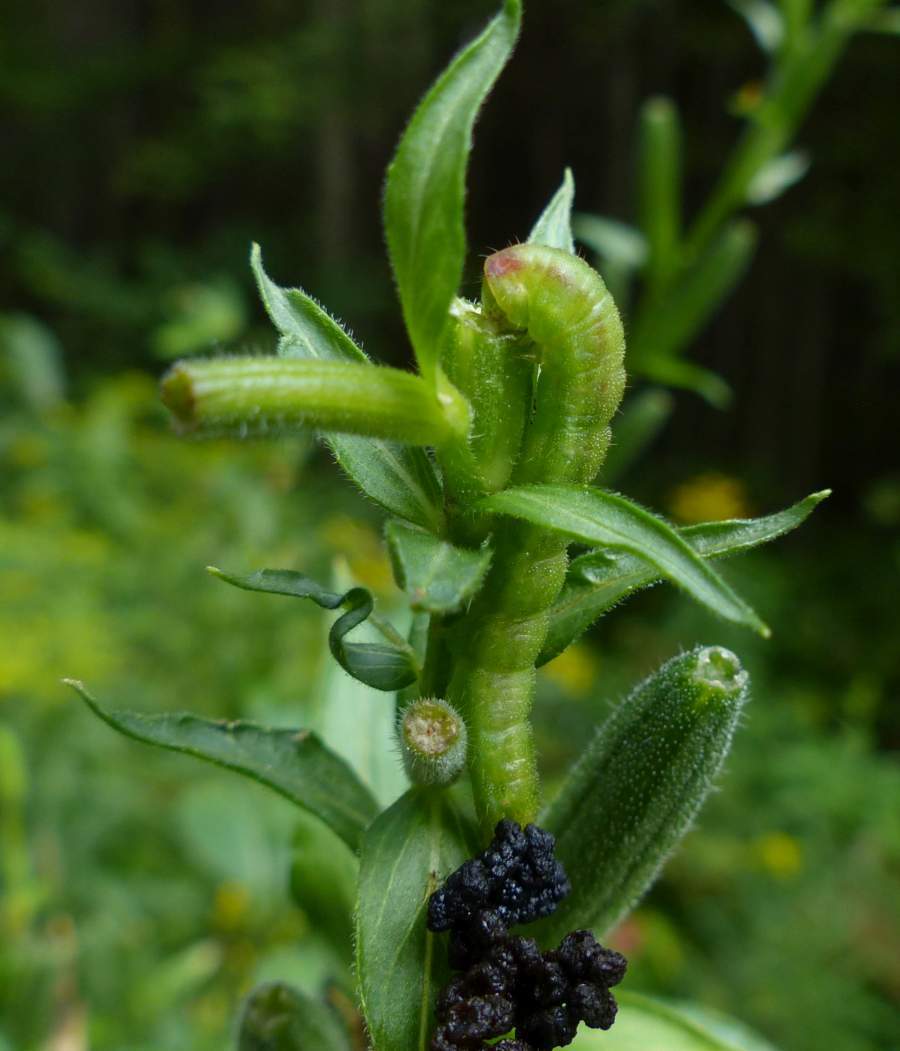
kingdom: Animalia
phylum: Arthropoda
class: Insecta
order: Lepidoptera
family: Noctuidae
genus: Schinia
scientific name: Schinia florida
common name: Primrose moth
